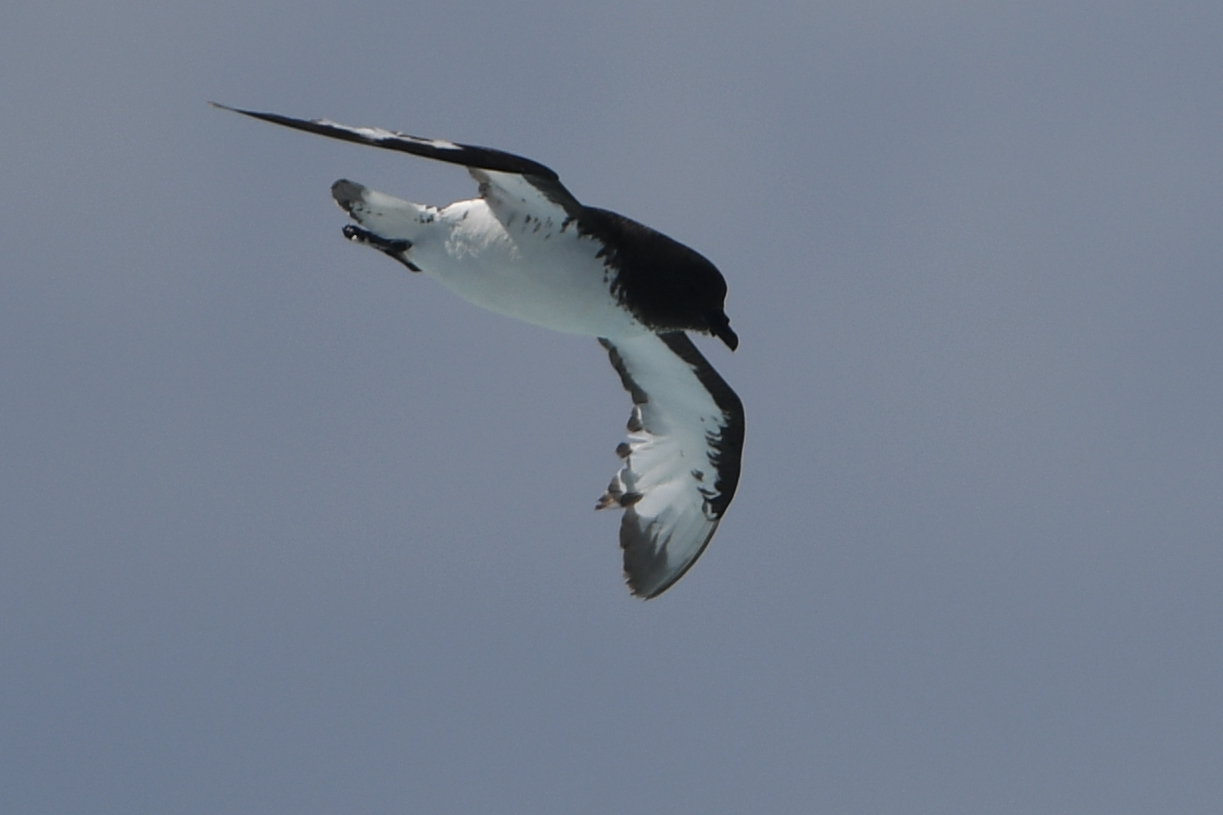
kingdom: Animalia
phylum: Chordata
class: Aves
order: Procellariiformes
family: Procellariidae
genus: Daption
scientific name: Daption capense
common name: Cape petrel
